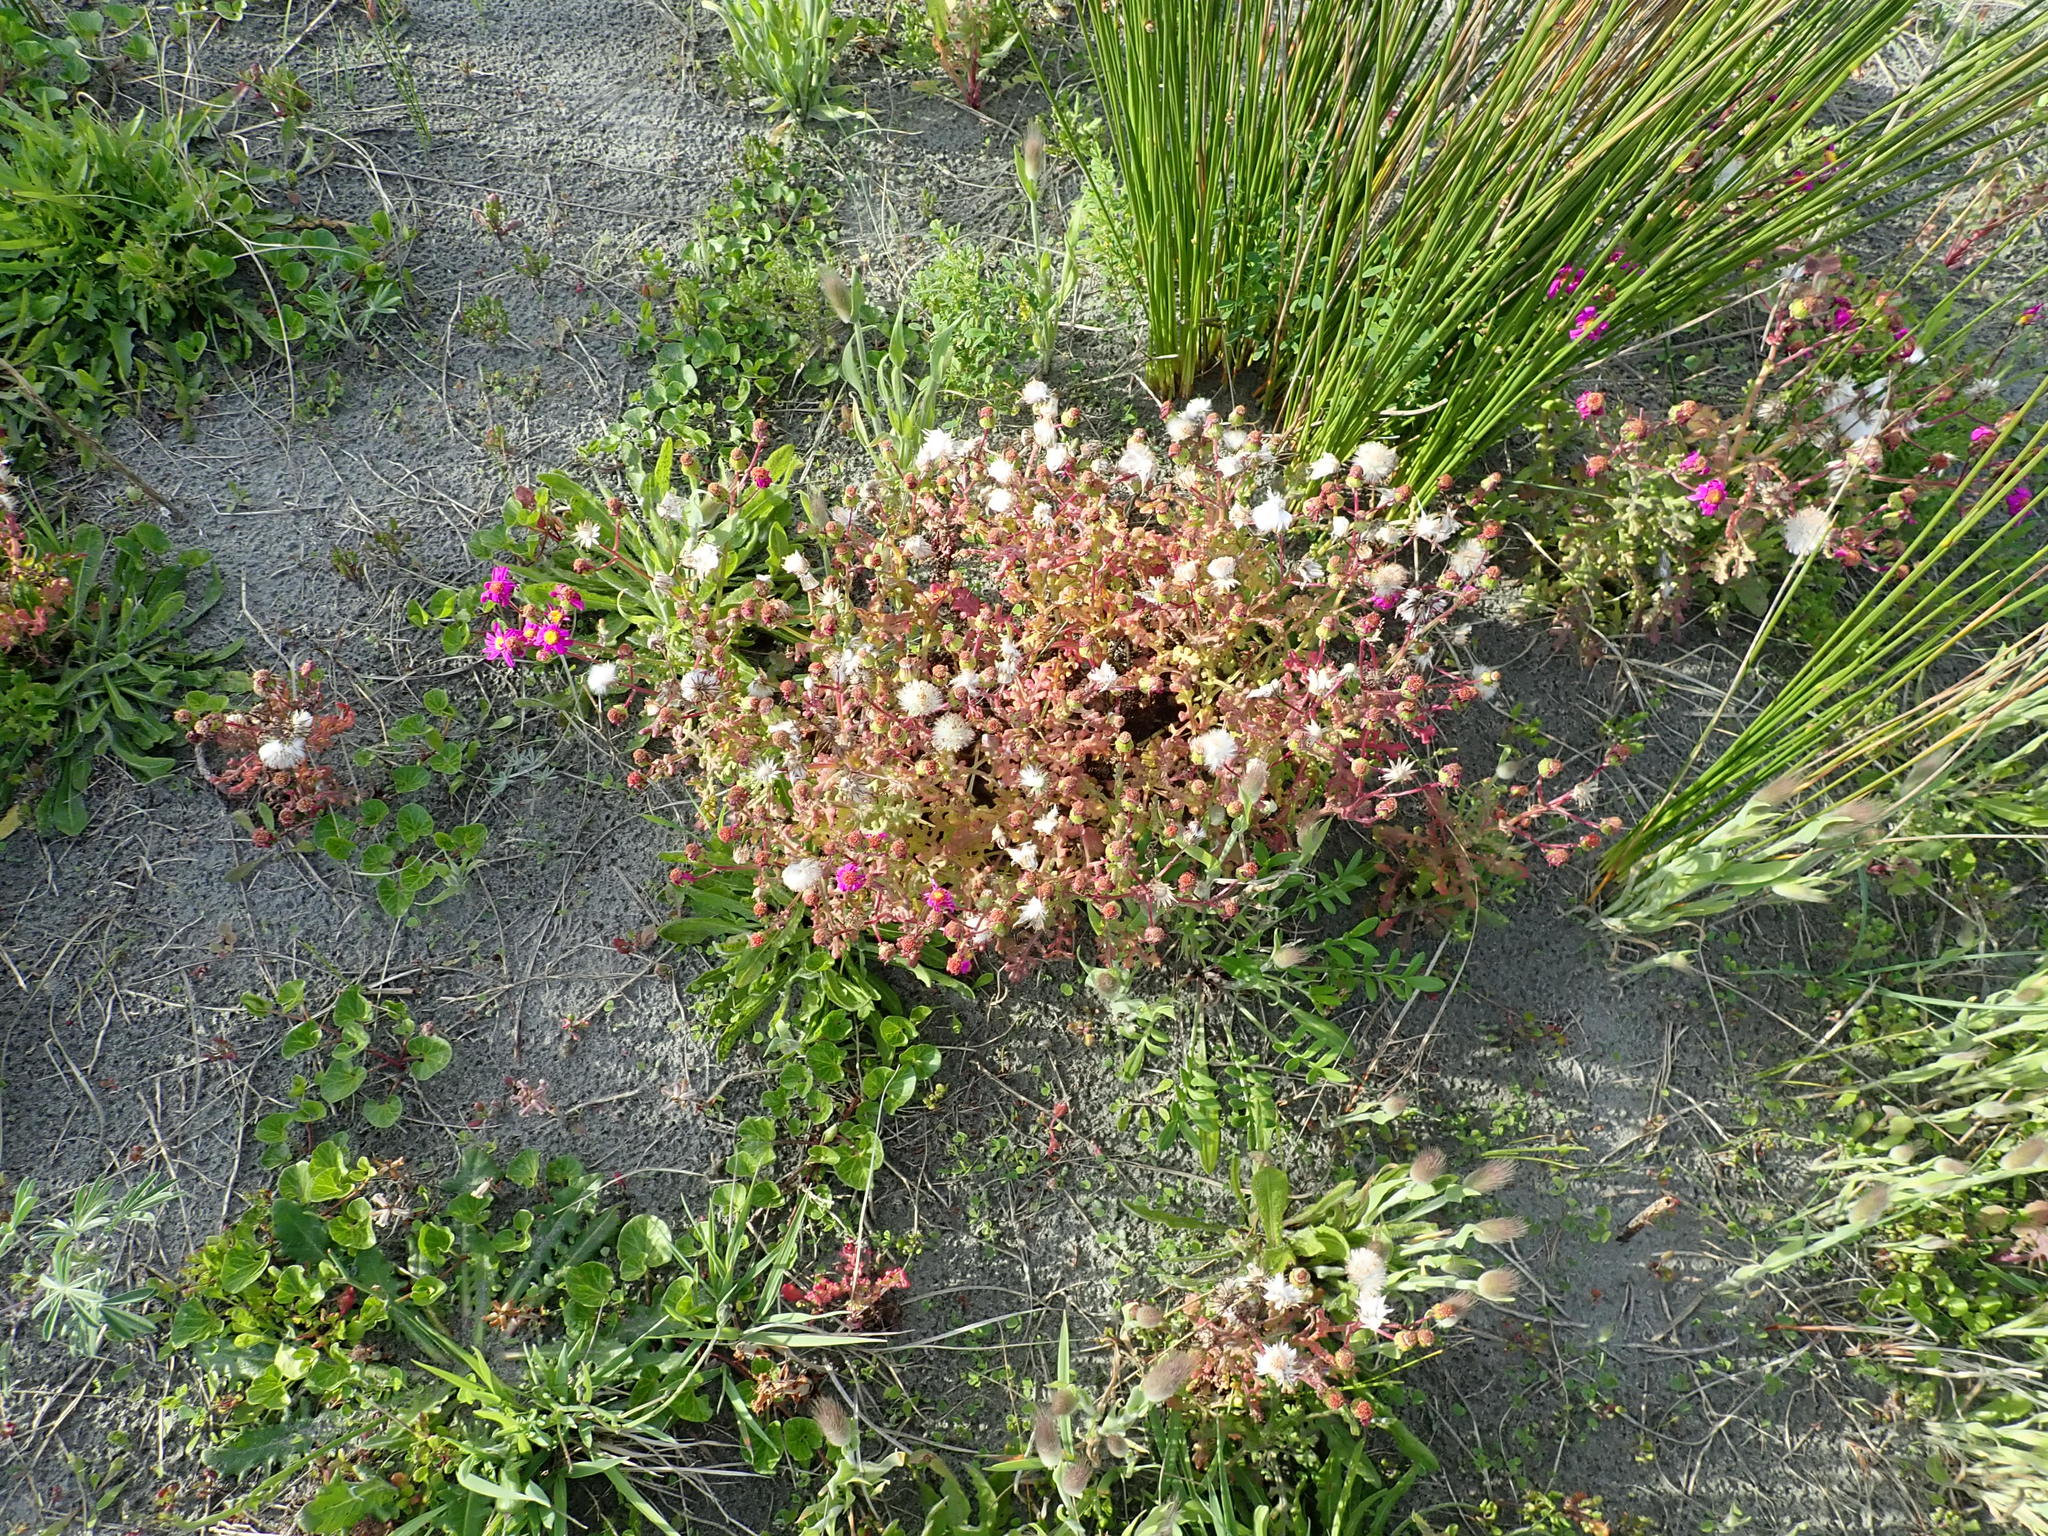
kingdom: Plantae
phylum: Tracheophyta
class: Magnoliopsida
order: Asterales
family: Asteraceae
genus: Senecio
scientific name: Senecio elegans
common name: Purple groundsel
